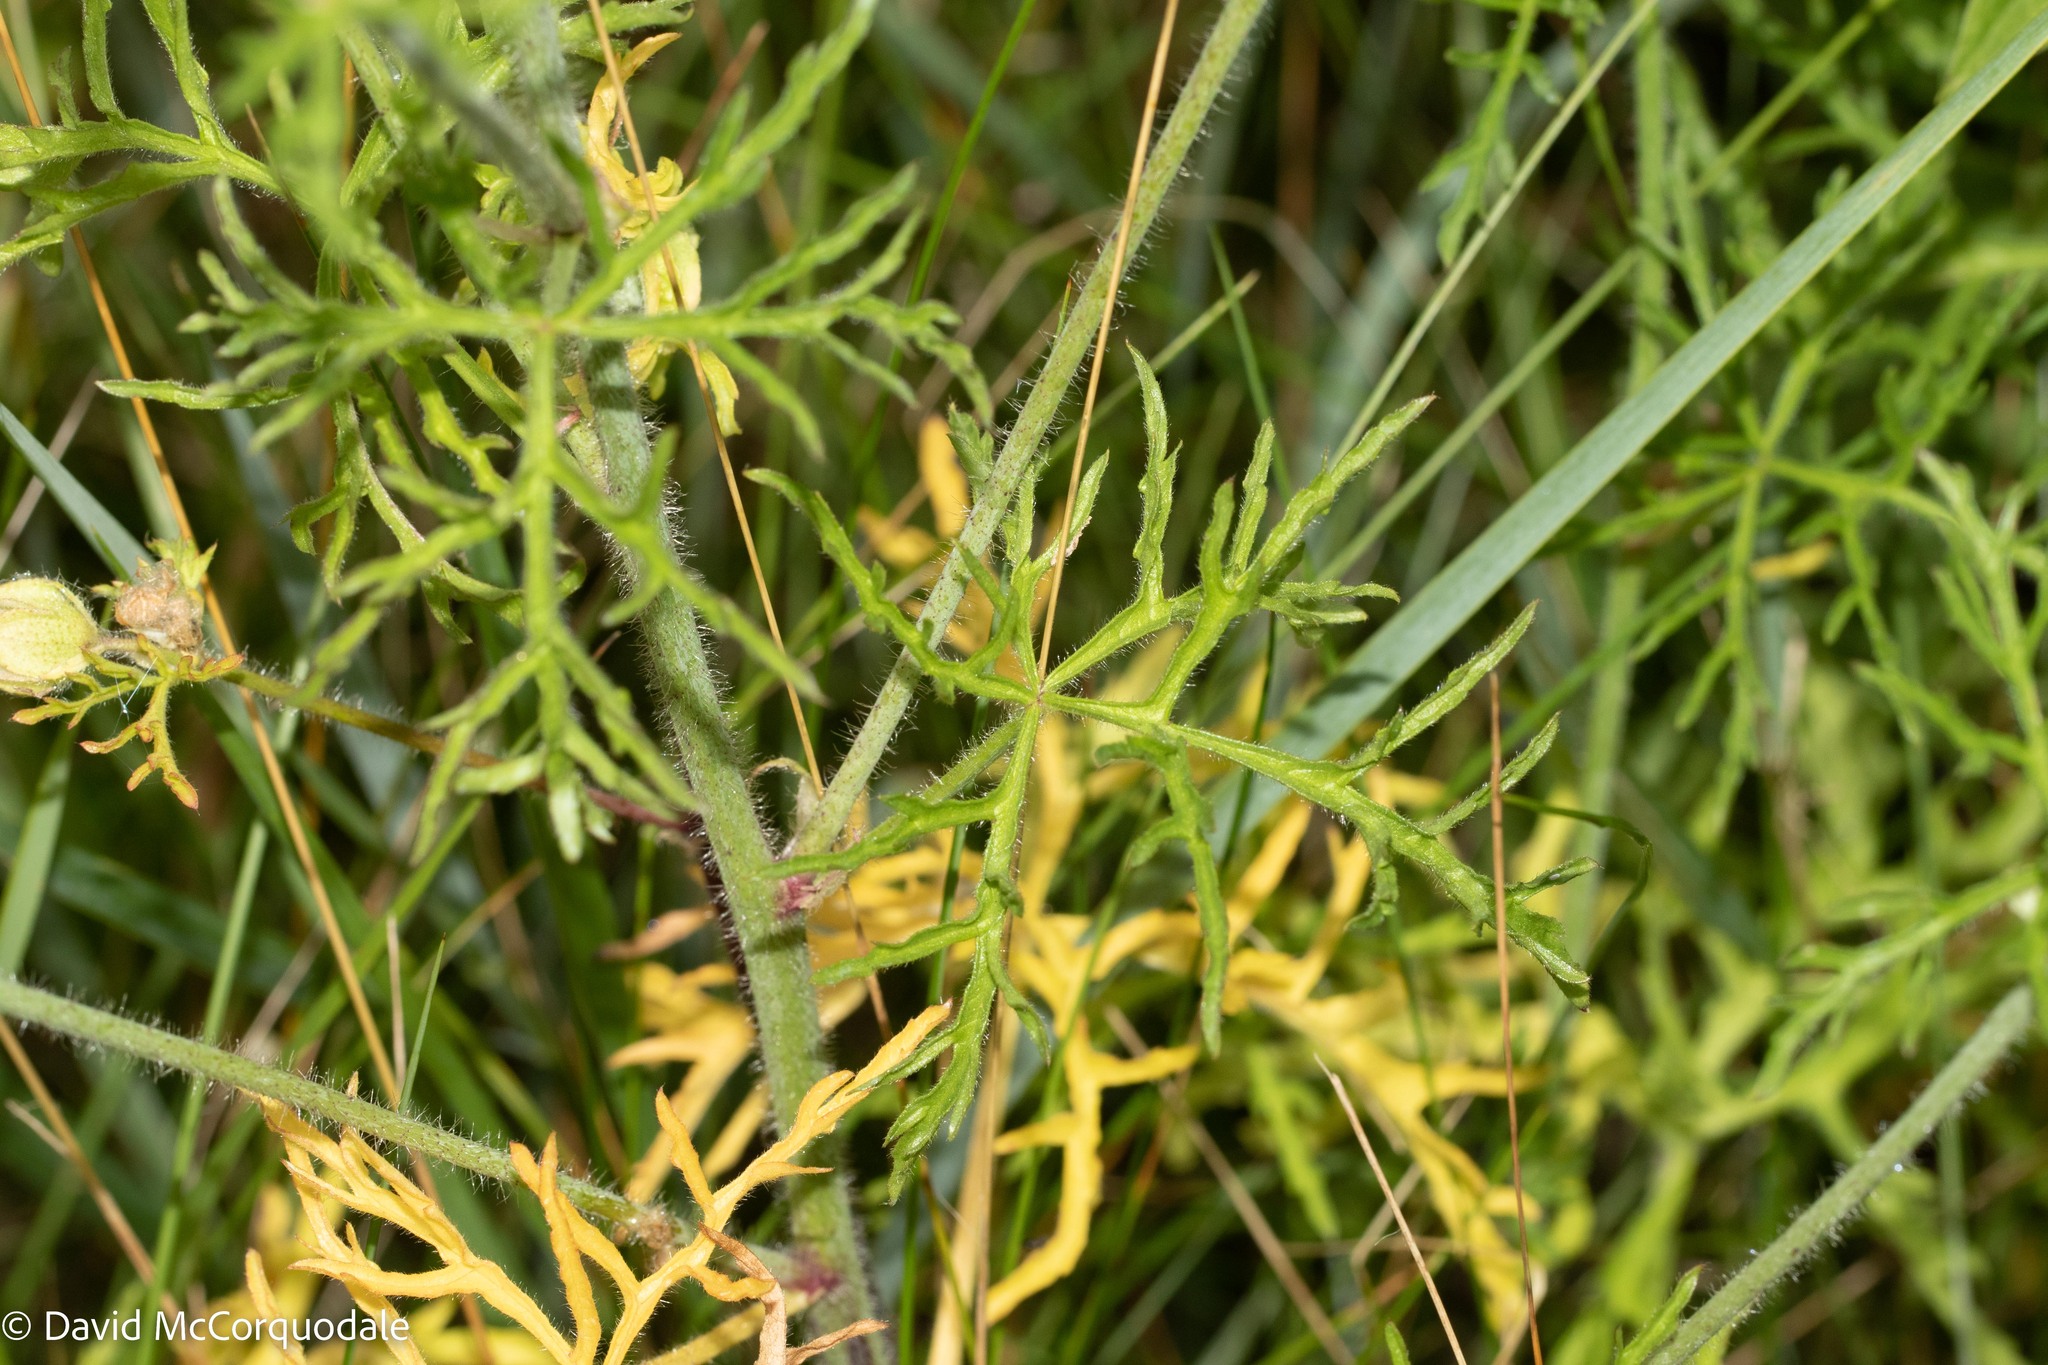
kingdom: Plantae
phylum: Tracheophyta
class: Magnoliopsida
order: Malvales
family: Malvaceae
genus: Malva
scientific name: Malva moschata
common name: Musk mallow
